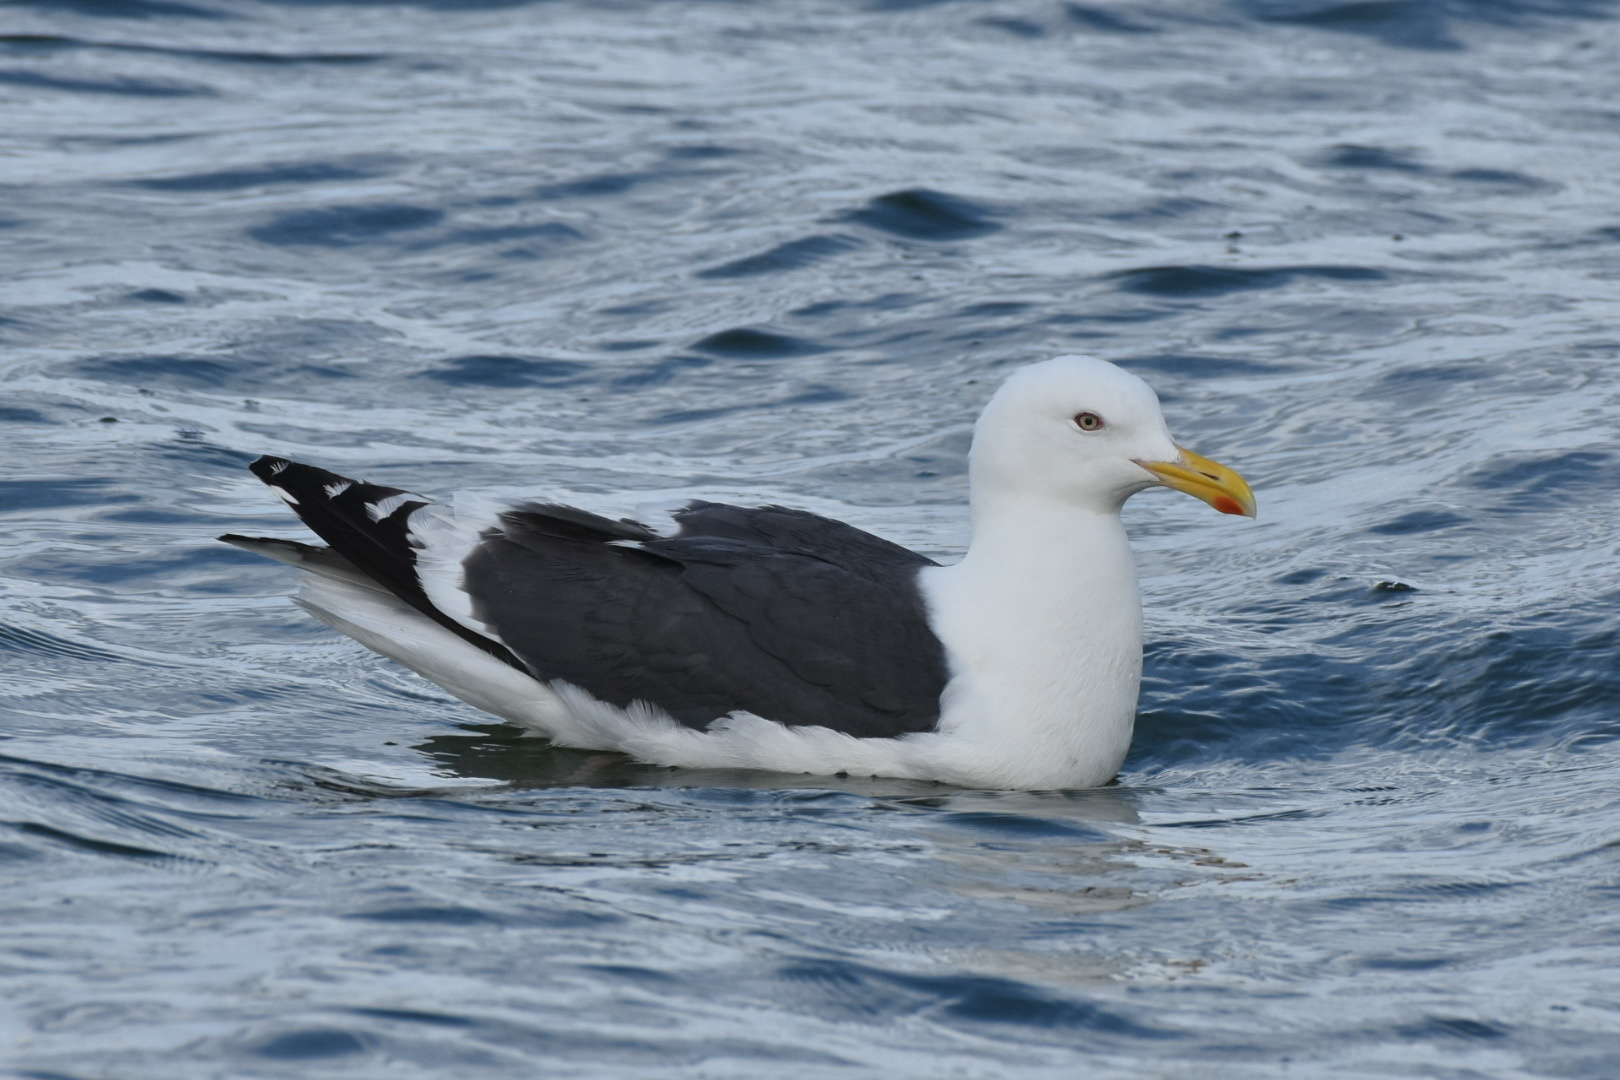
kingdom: Animalia
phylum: Chordata
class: Aves
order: Charadriiformes
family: Laridae
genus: Larus
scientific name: Larus schistisagus
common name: Slaty-backed gull
